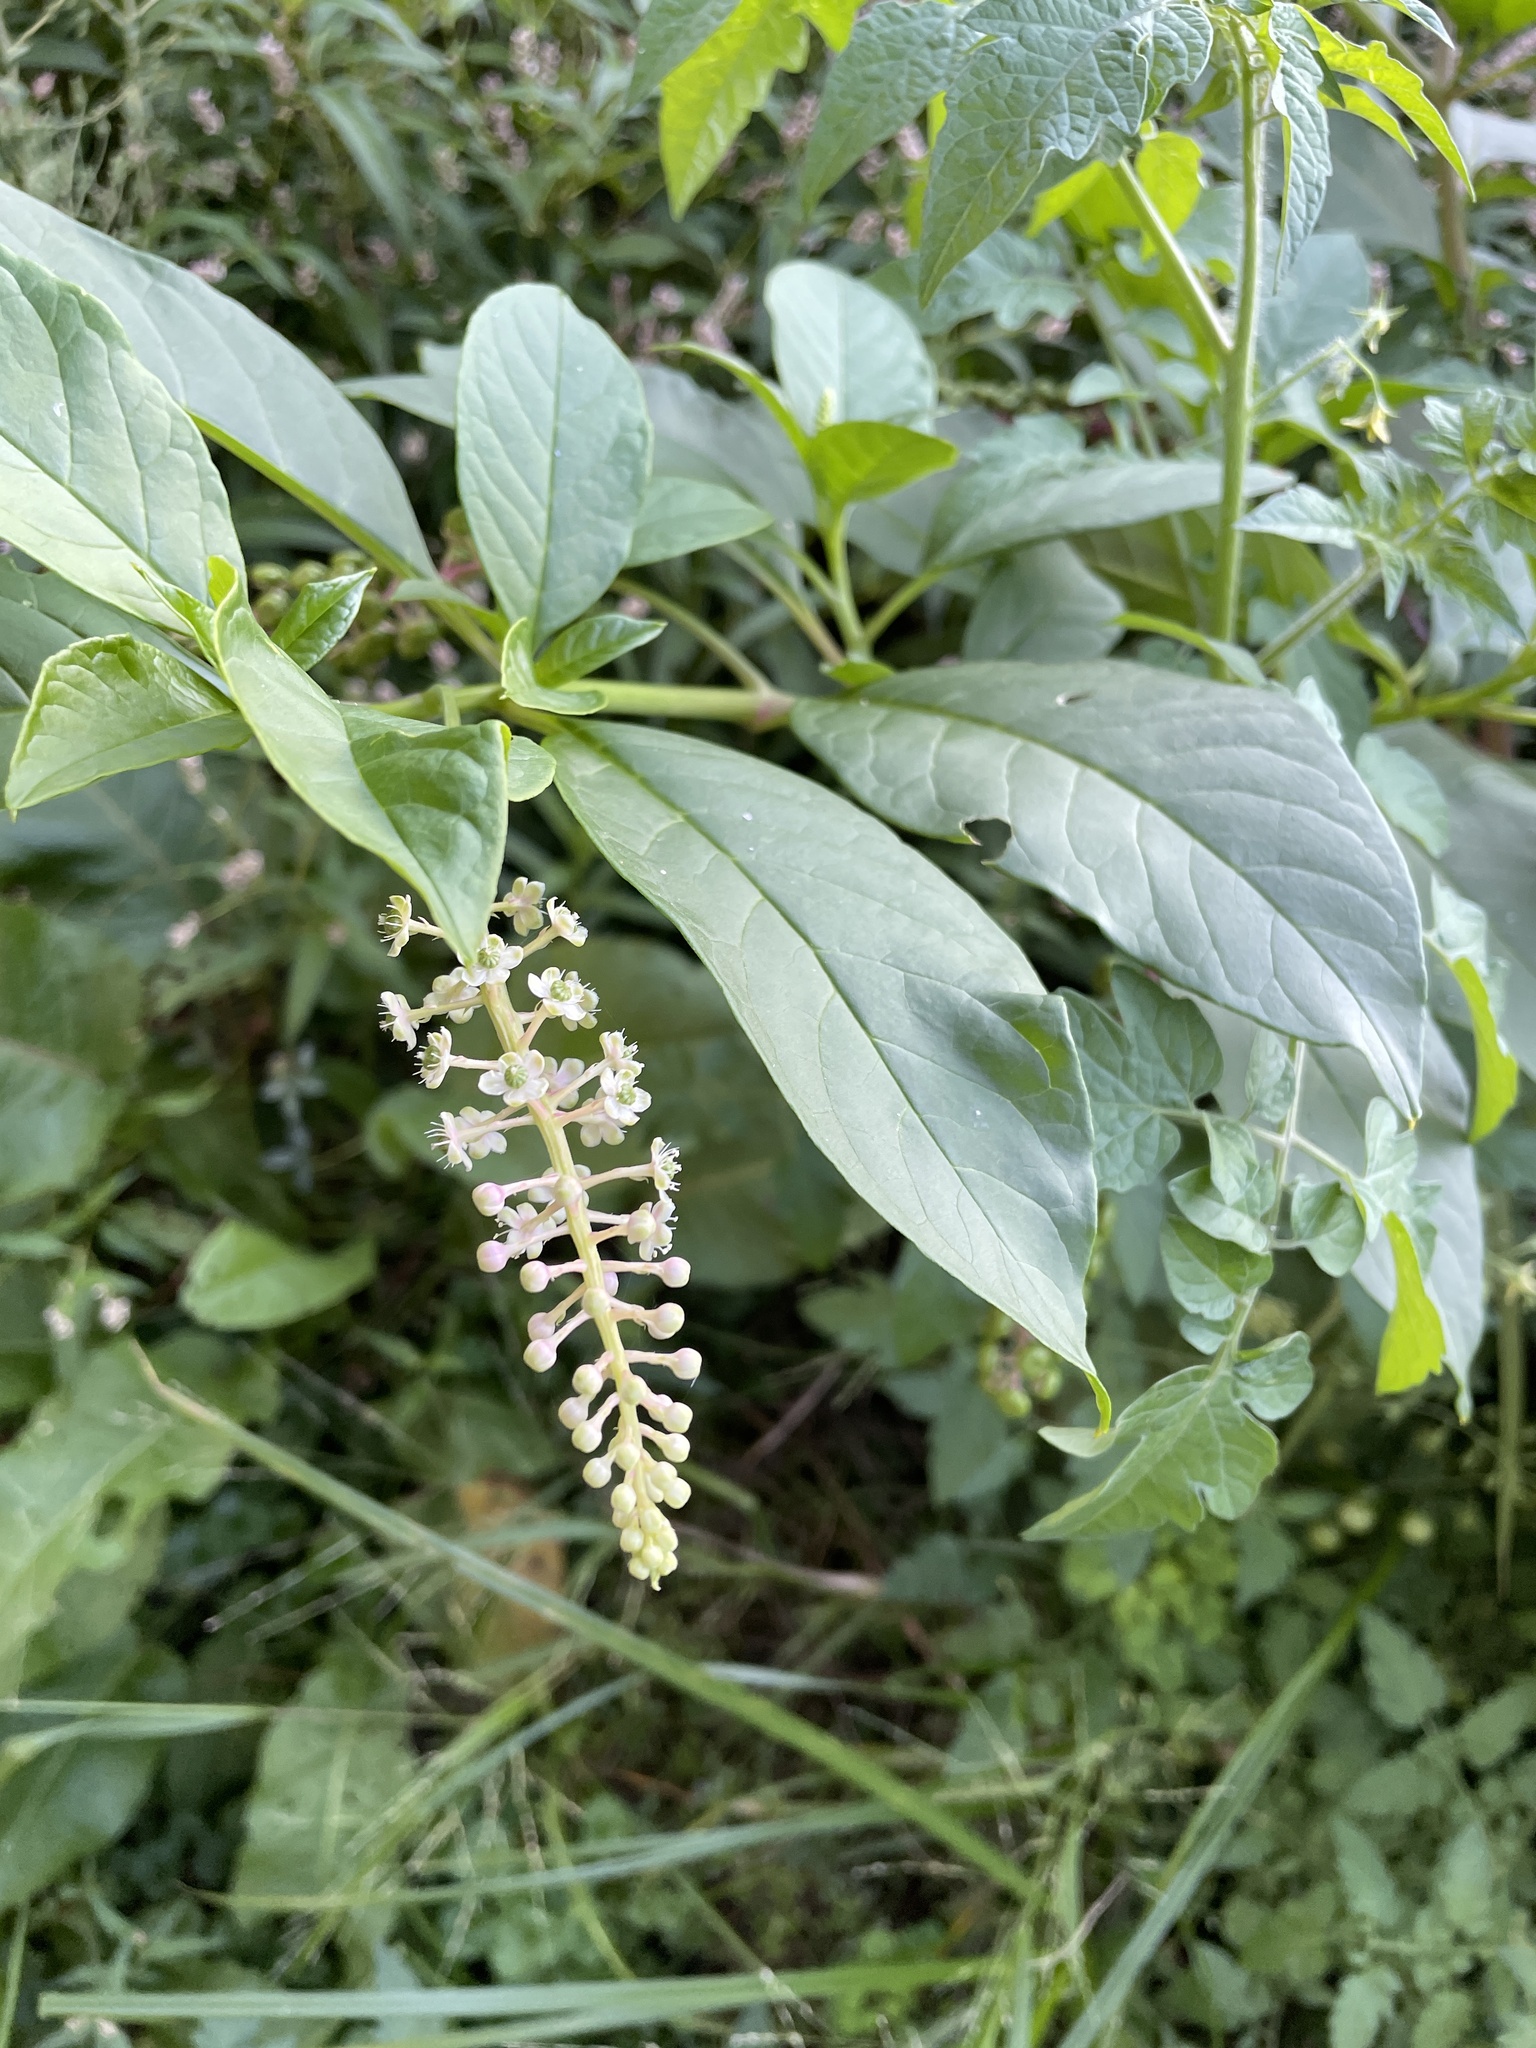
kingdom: Plantae
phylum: Tracheophyta
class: Magnoliopsida
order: Caryophyllales
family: Phytolaccaceae
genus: Phytolacca
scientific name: Phytolacca americana
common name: American pokeweed
